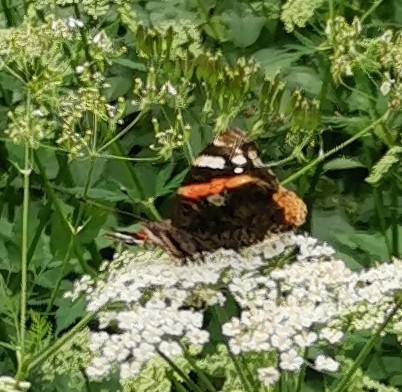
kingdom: Animalia
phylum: Arthropoda
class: Insecta
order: Lepidoptera
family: Nymphalidae
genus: Vanessa
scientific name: Vanessa atalanta
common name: Red admiral
